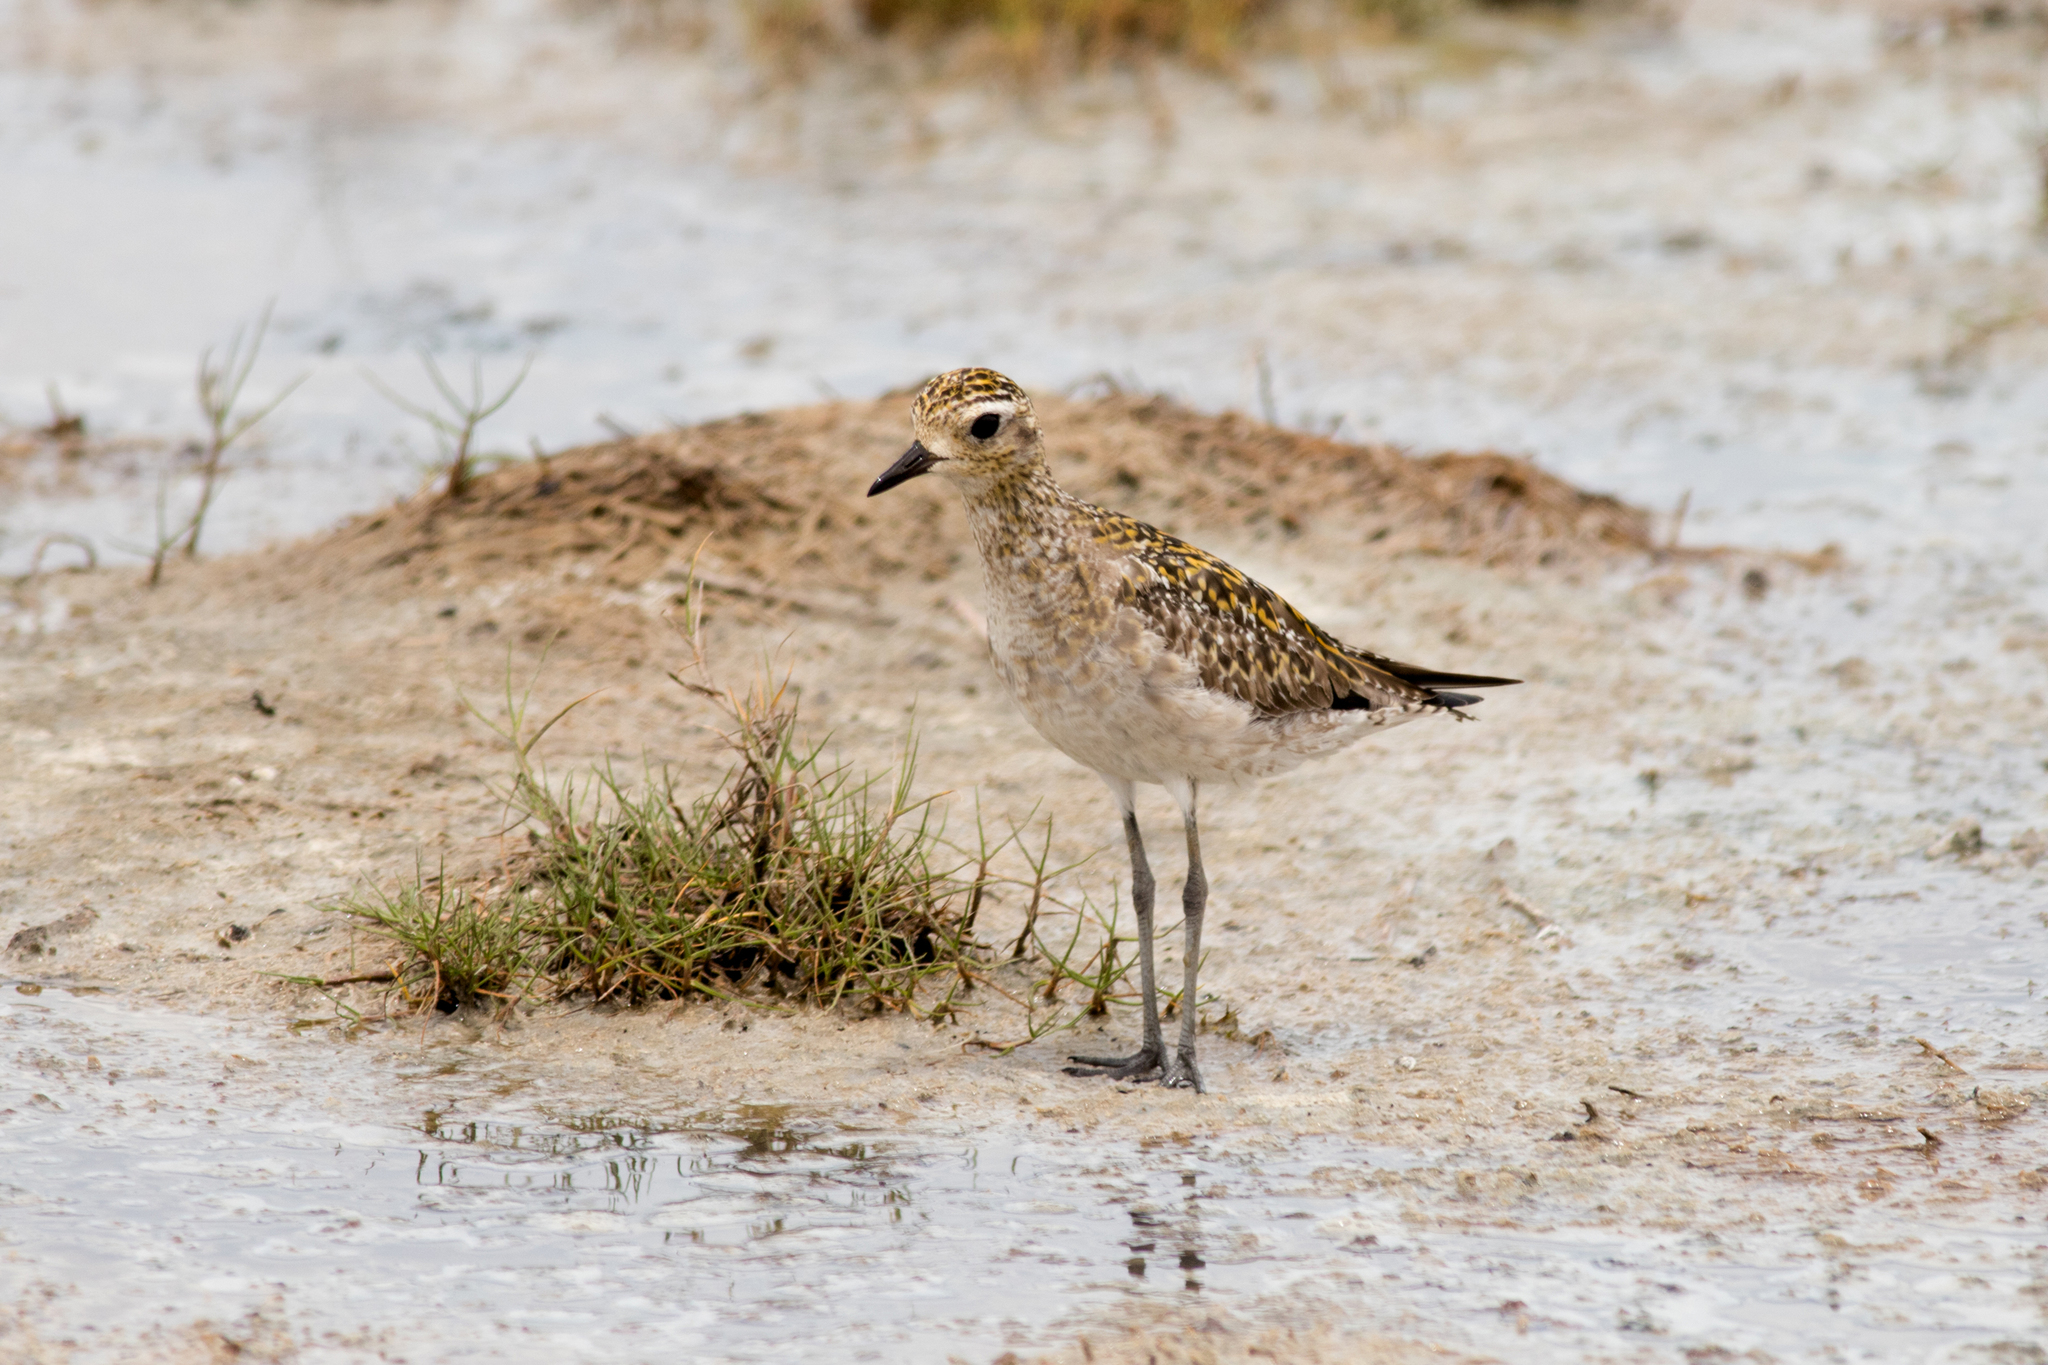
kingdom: Animalia
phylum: Chordata
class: Aves
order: Charadriiformes
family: Charadriidae
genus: Pluvialis
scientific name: Pluvialis fulva
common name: Pacific golden plover
